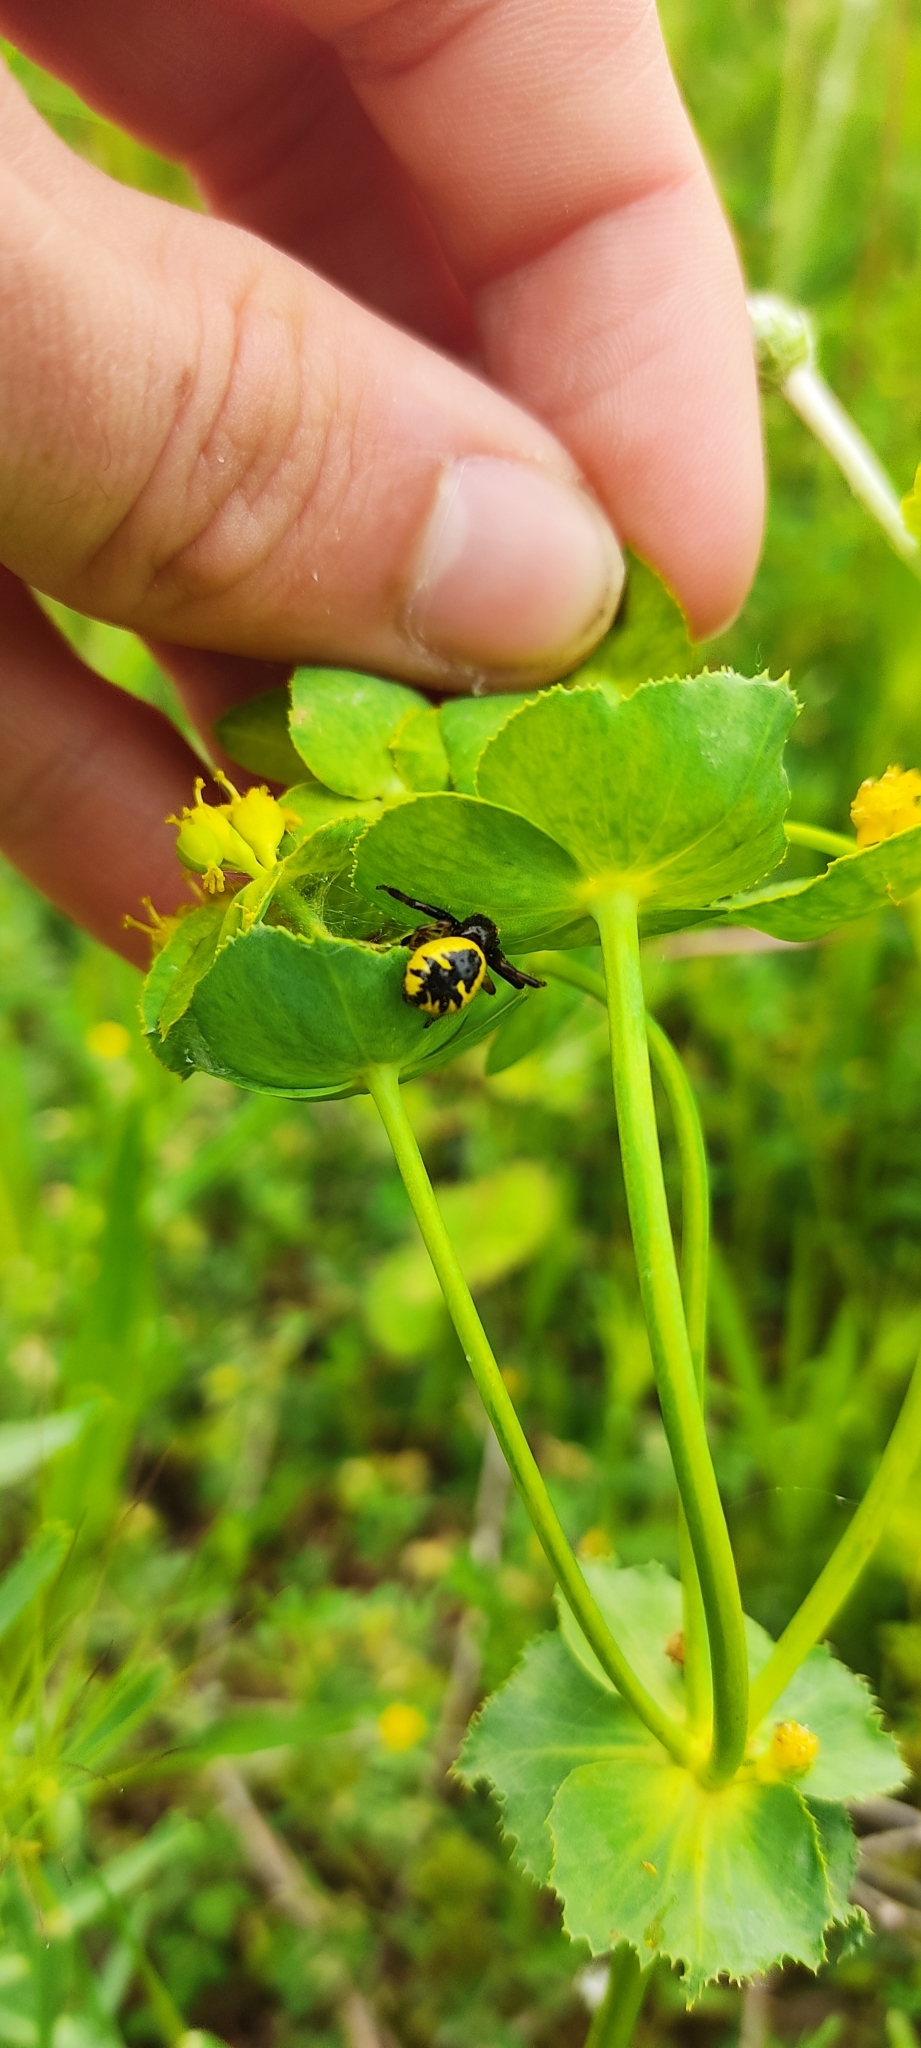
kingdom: Animalia
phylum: Arthropoda
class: Arachnida
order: Araneae
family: Thomisidae
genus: Synema
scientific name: Synema globosum
